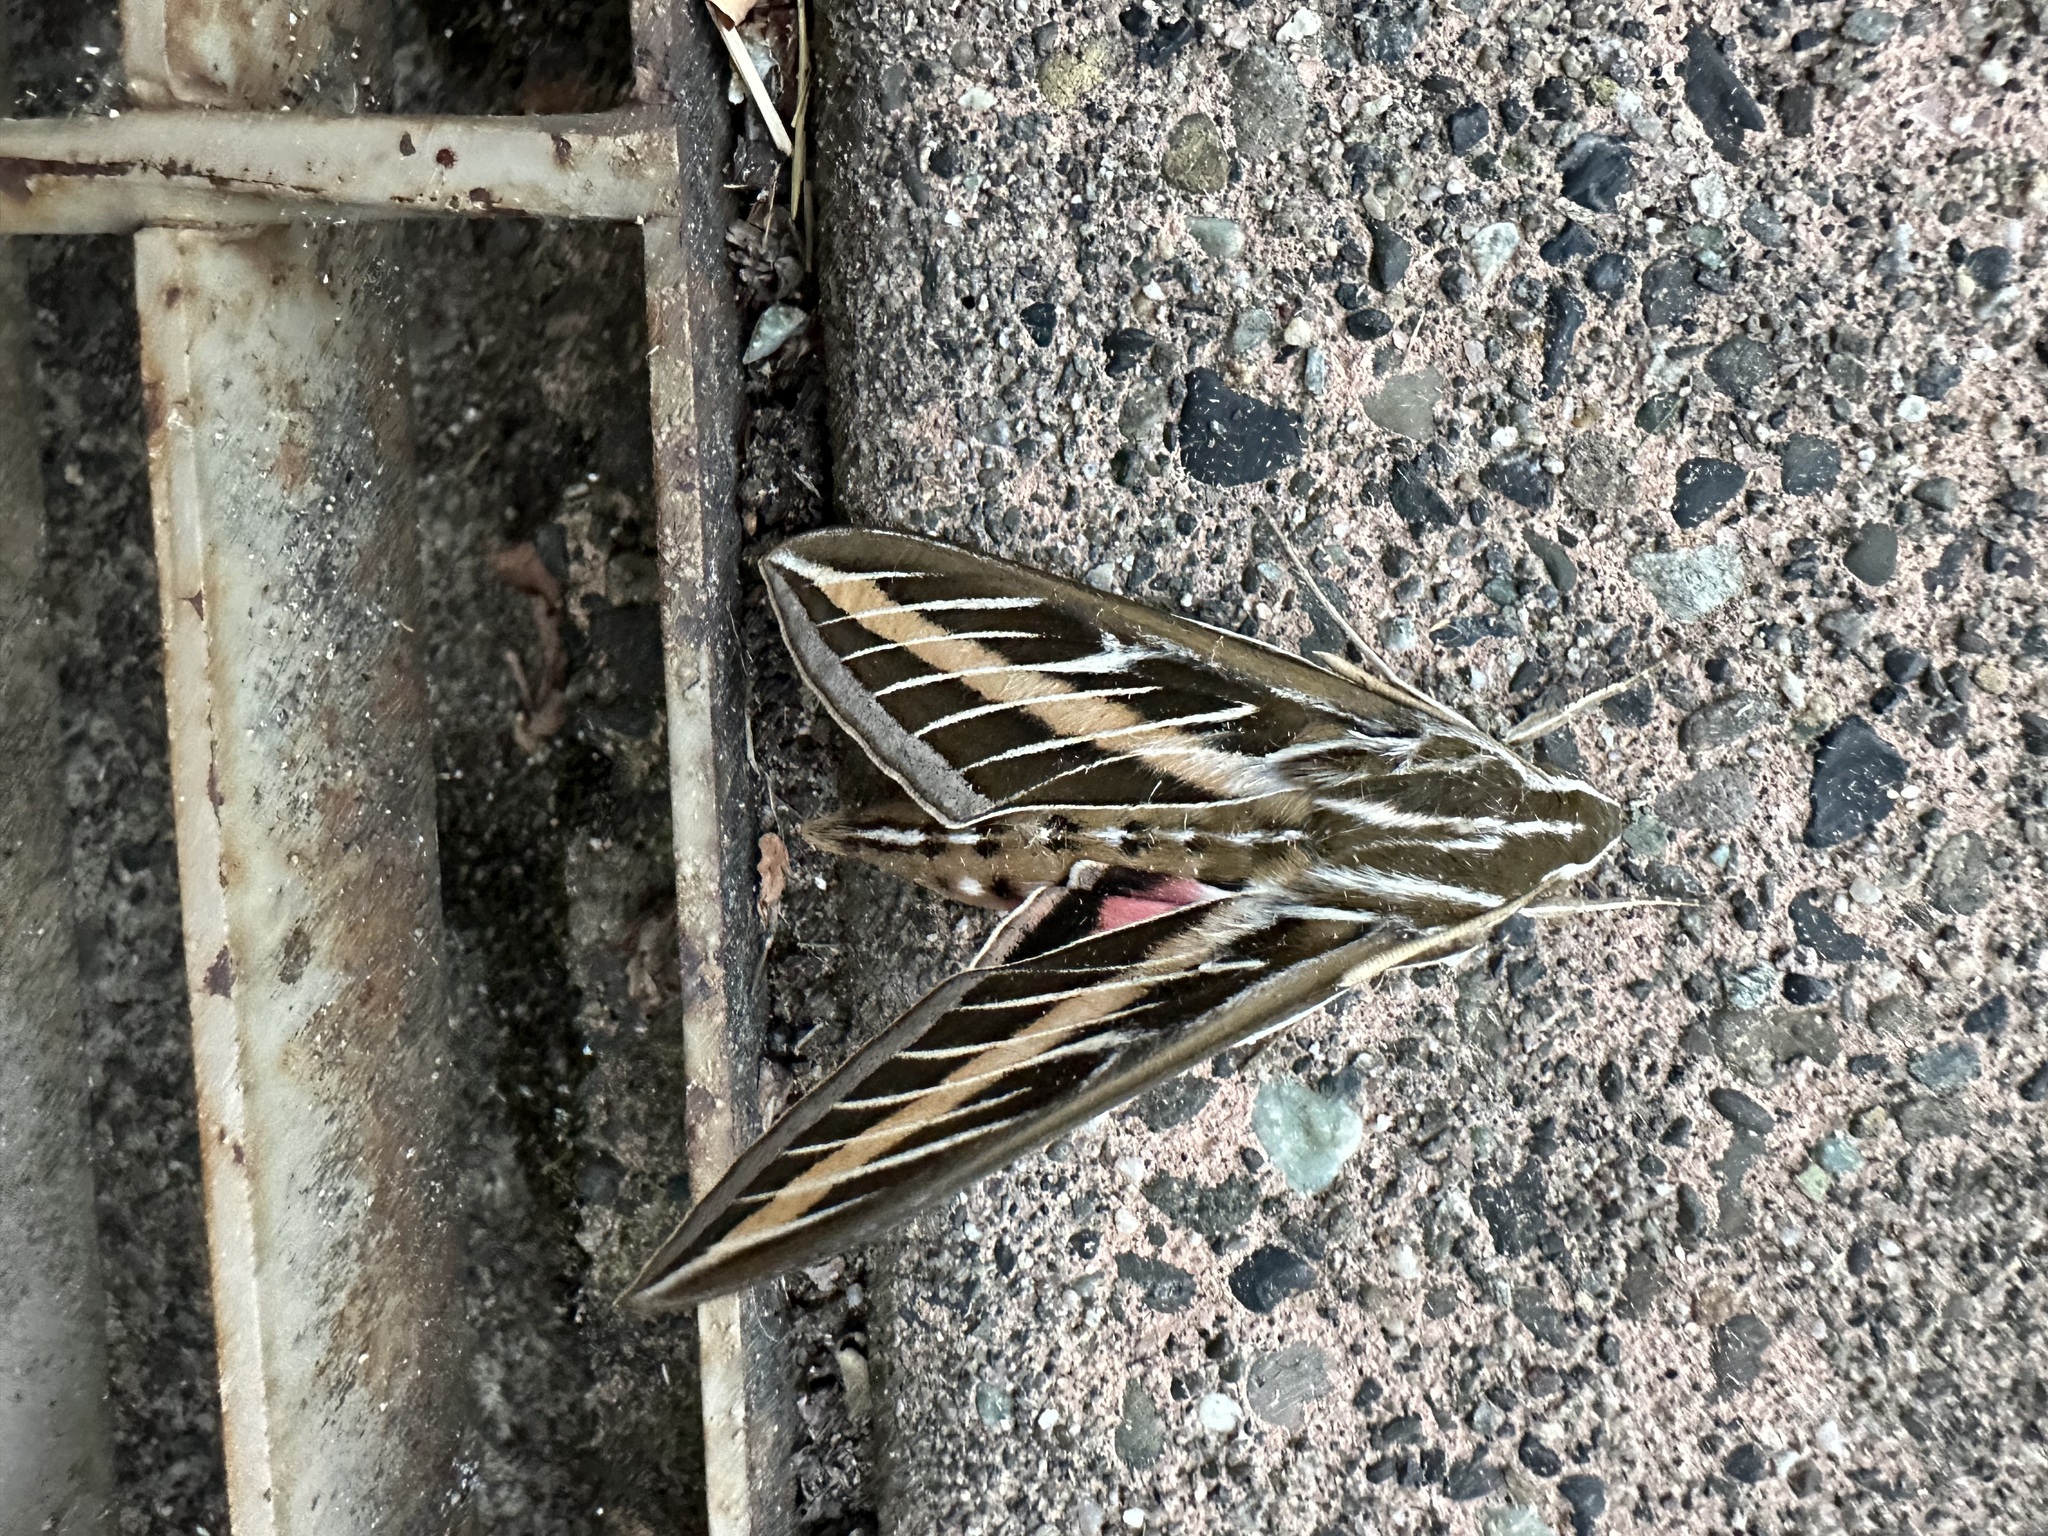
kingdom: Animalia
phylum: Arthropoda
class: Insecta
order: Lepidoptera
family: Sphingidae
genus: Hyles
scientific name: Hyles lineata
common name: White-lined sphinx
